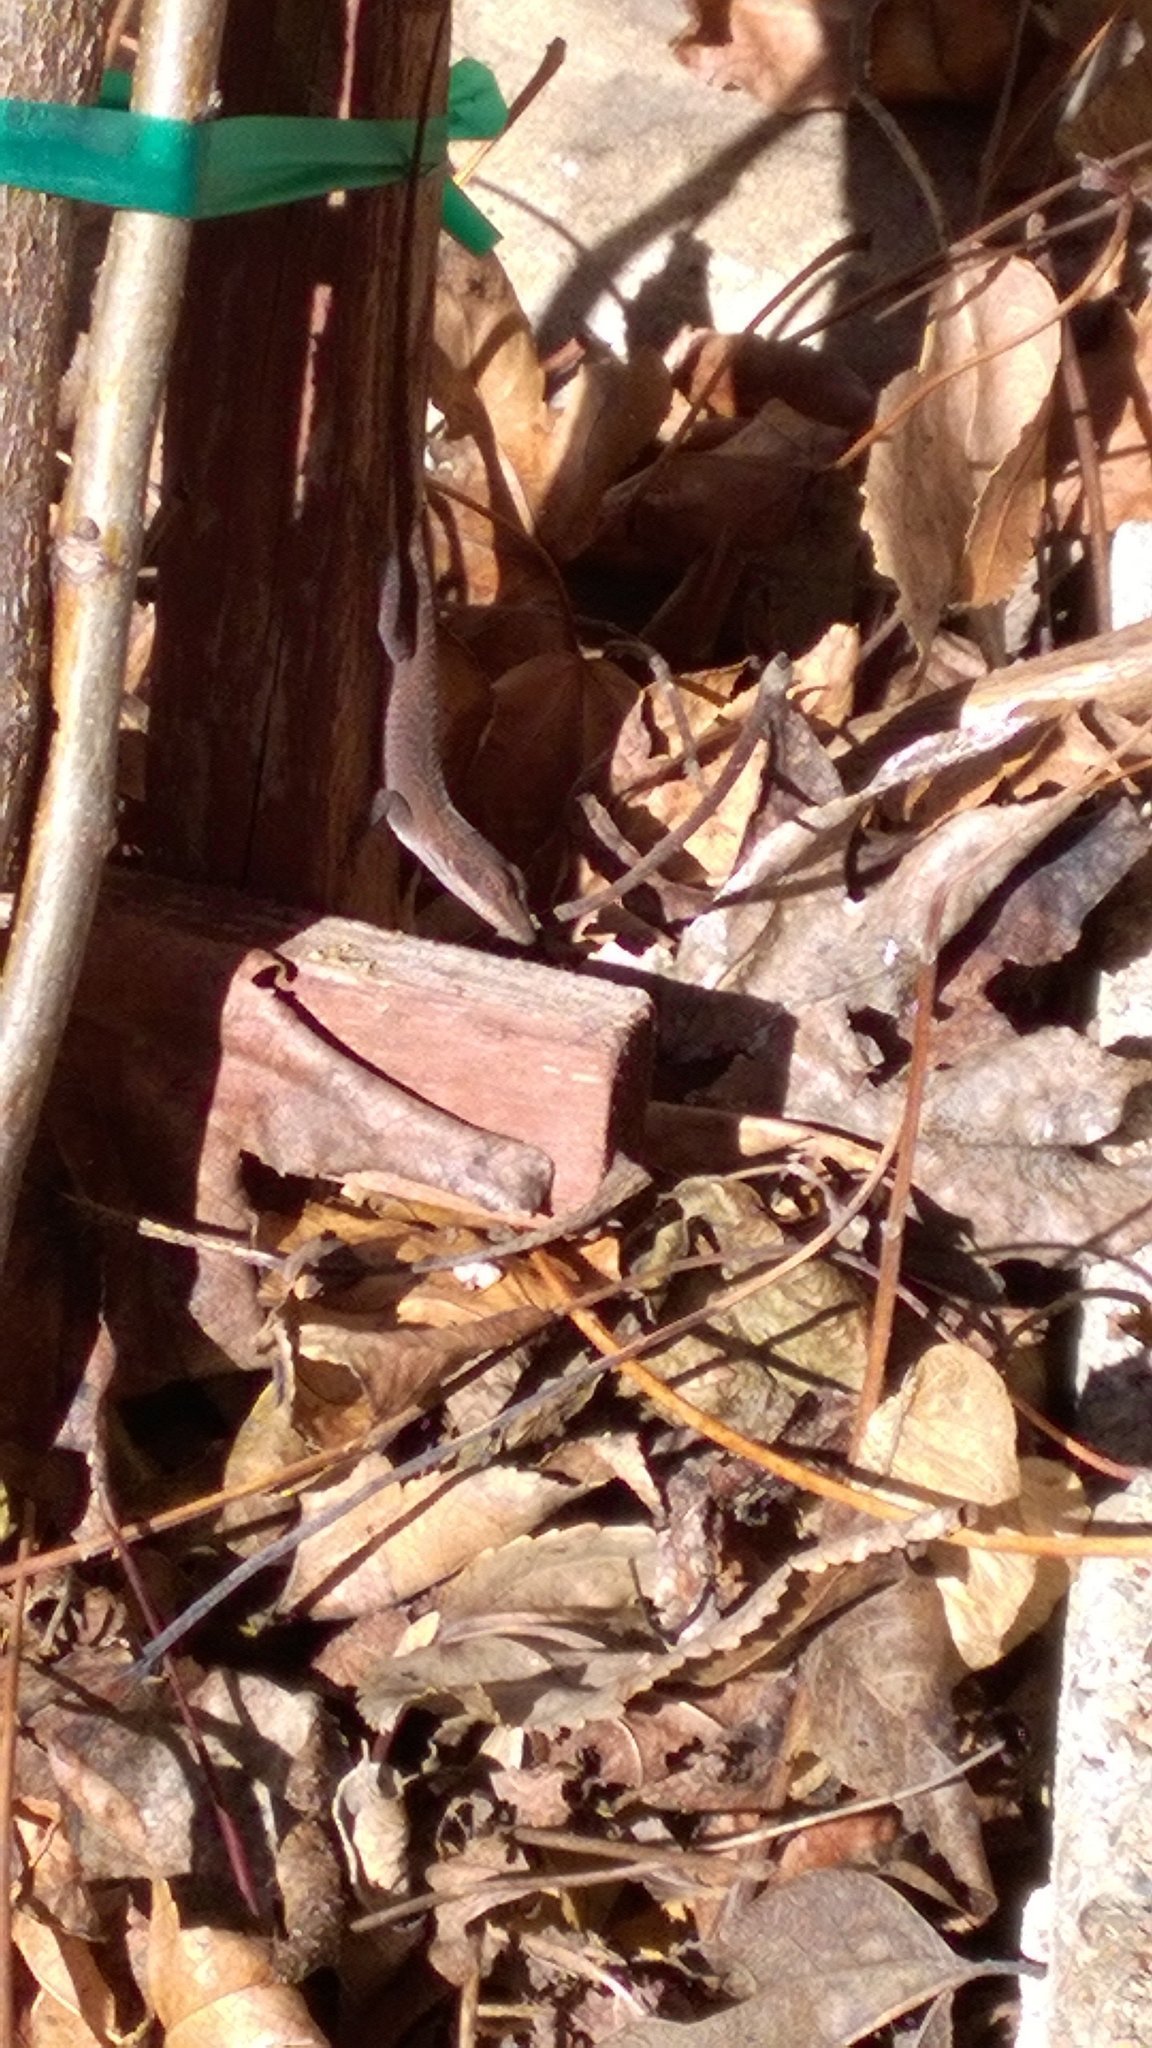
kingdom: Animalia
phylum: Chordata
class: Squamata
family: Dactyloidae
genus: Anolis
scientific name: Anolis carolinensis
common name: Green anole
